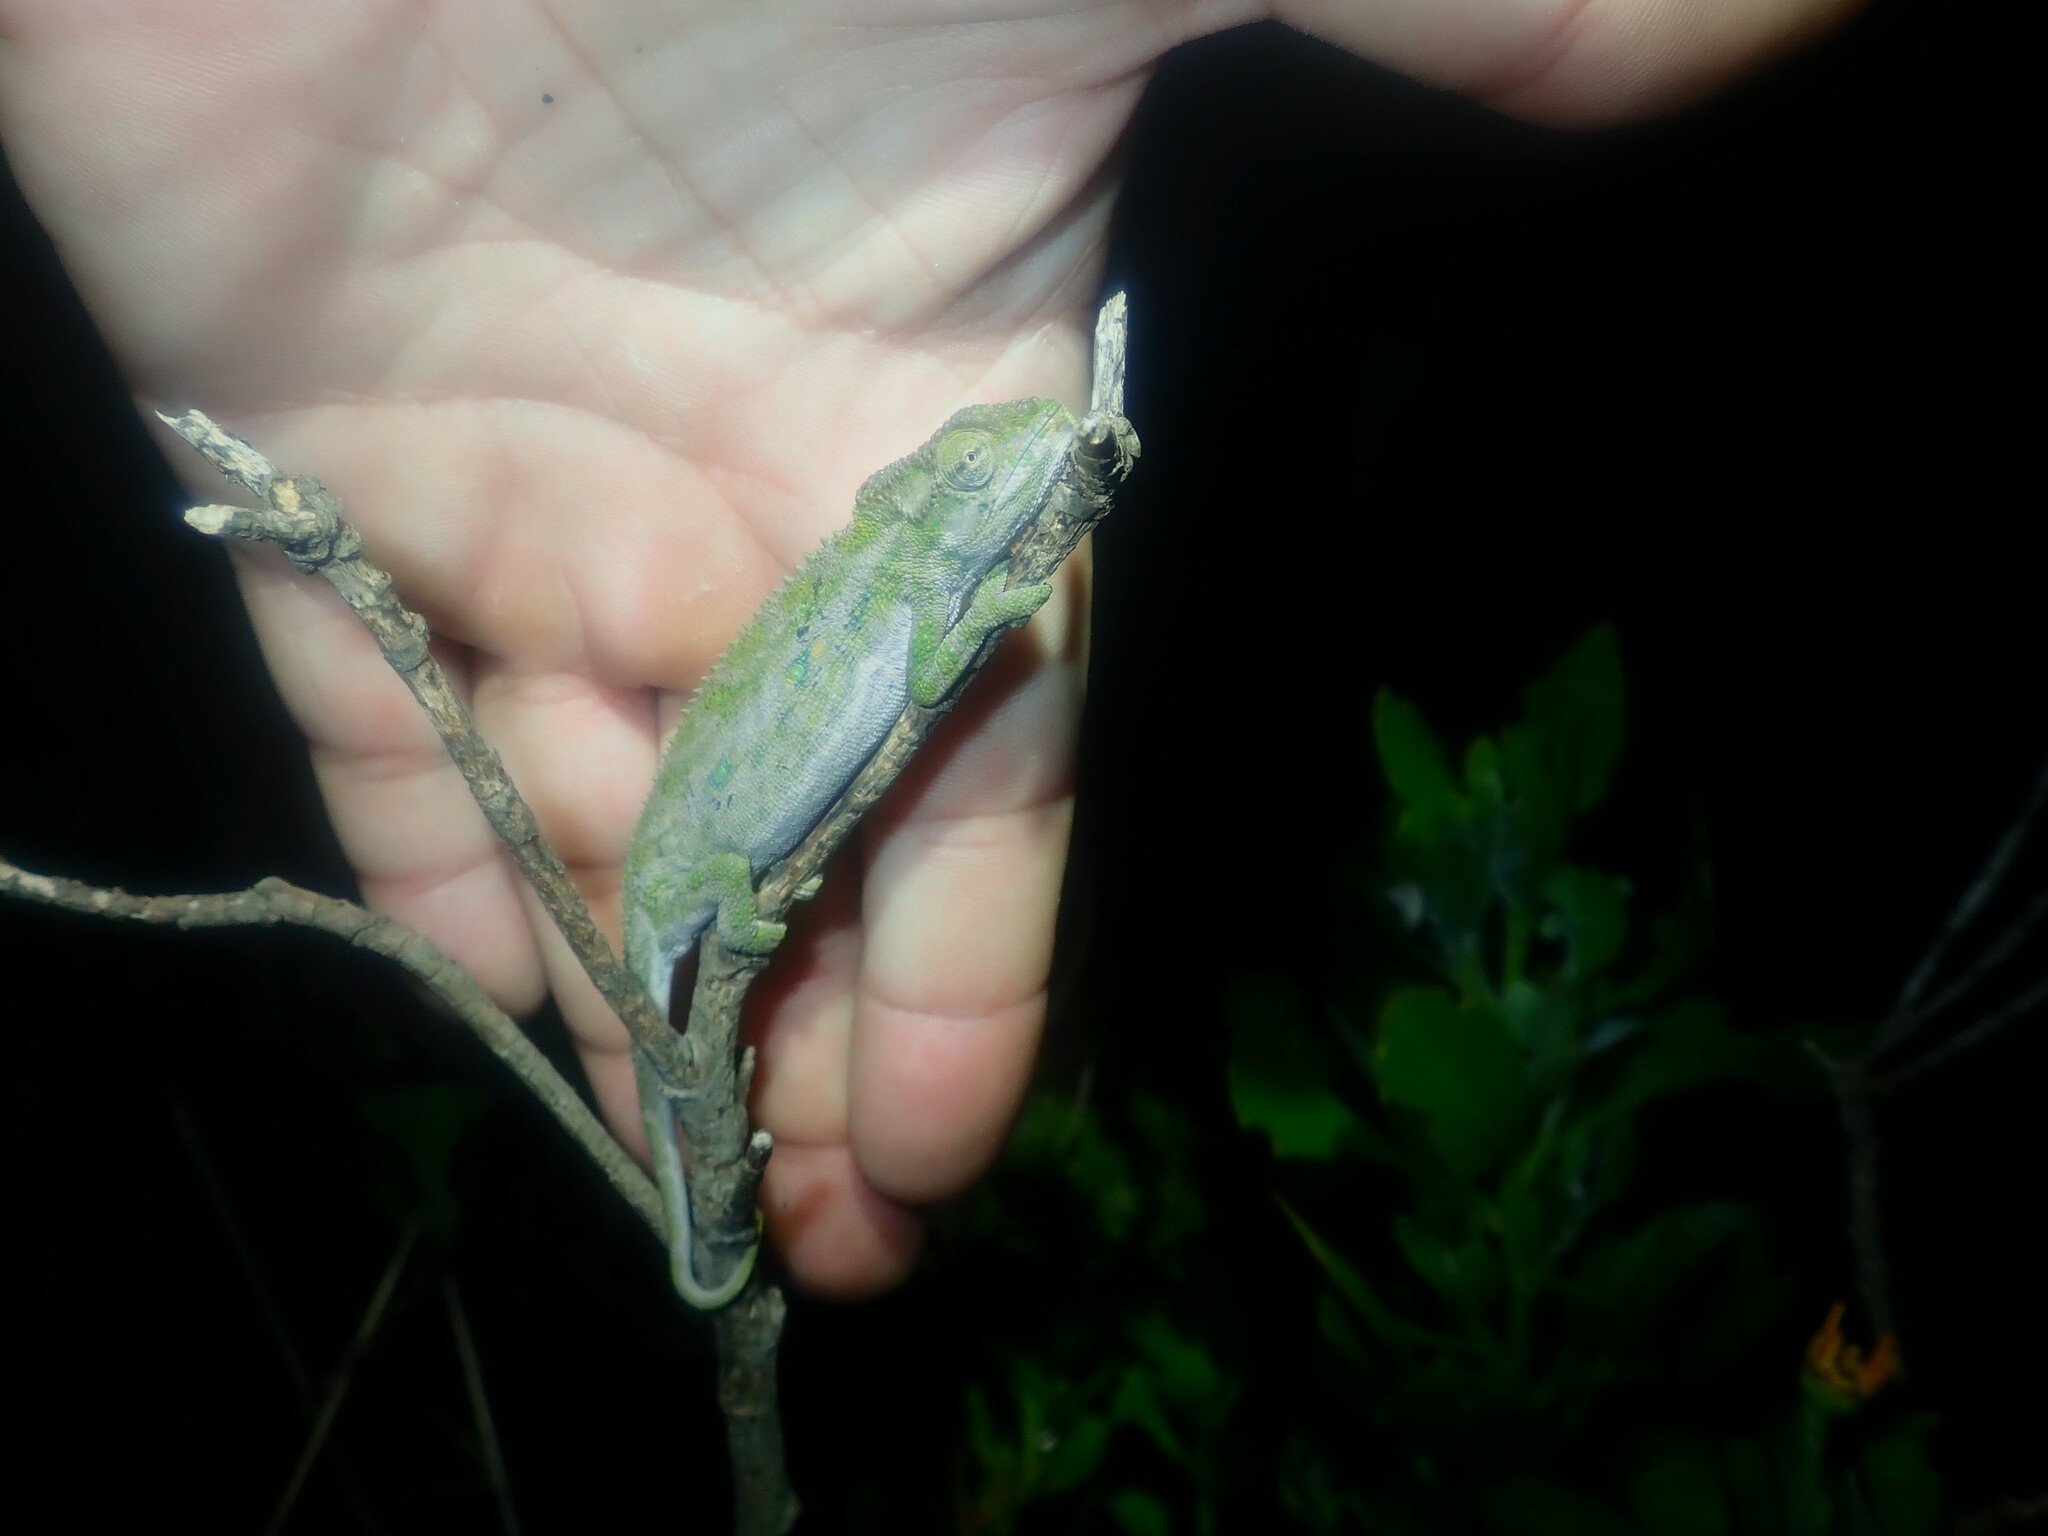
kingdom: Animalia
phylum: Chordata
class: Squamata
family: Chamaeleonidae
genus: Bradypodion
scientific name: Bradypodion pumilum
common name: Cape dwarf chameleon
